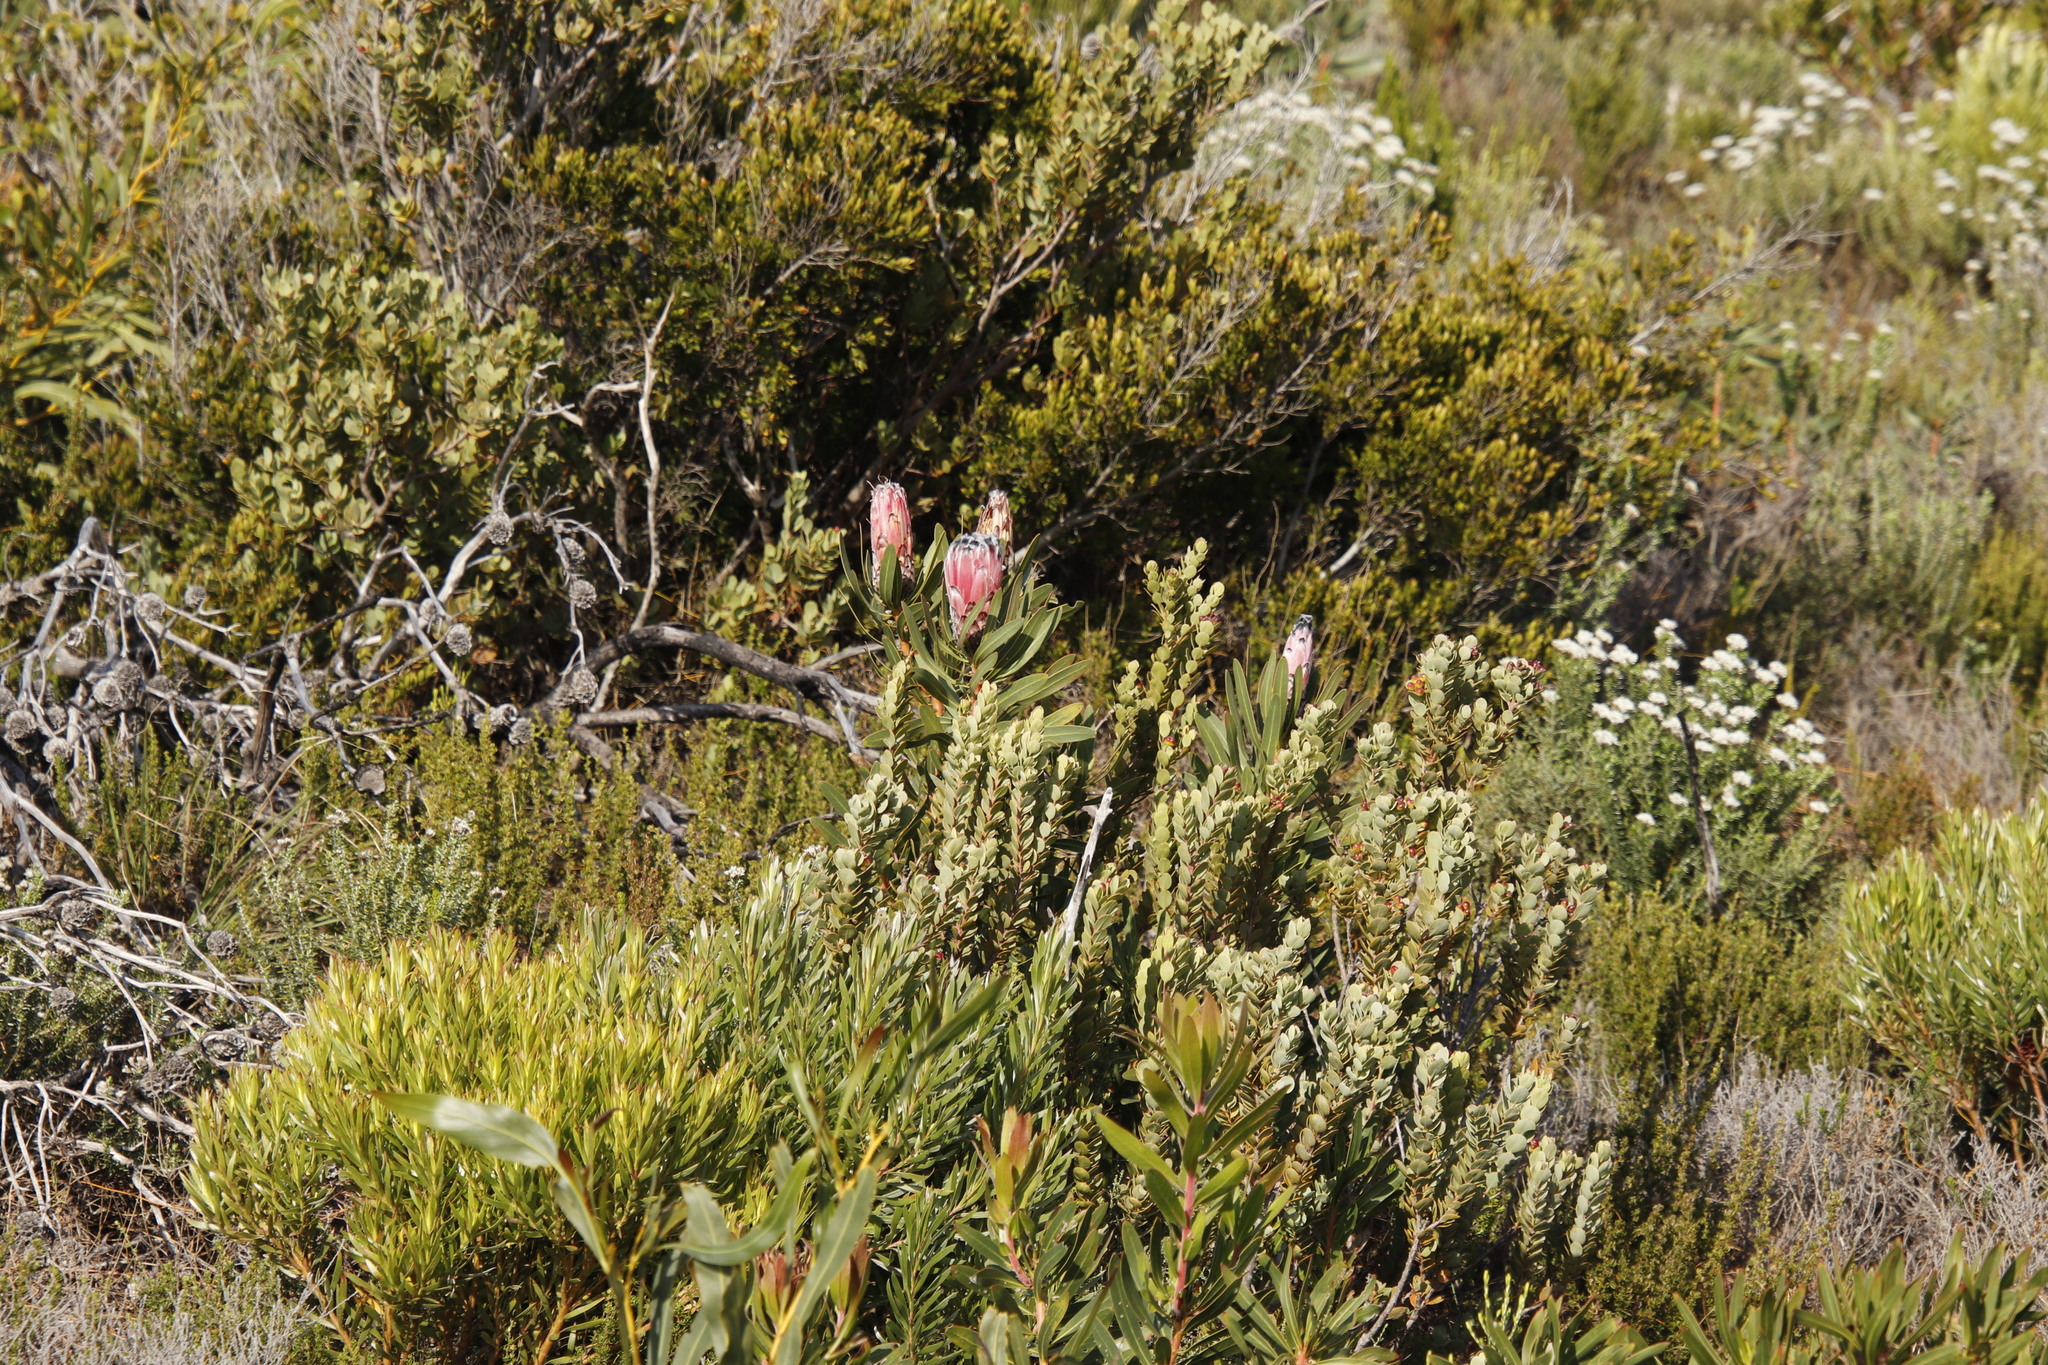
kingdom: Plantae
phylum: Tracheophyta
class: Magnoliopsida
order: Proteales
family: Proteaceae
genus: Protea
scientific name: Protea
